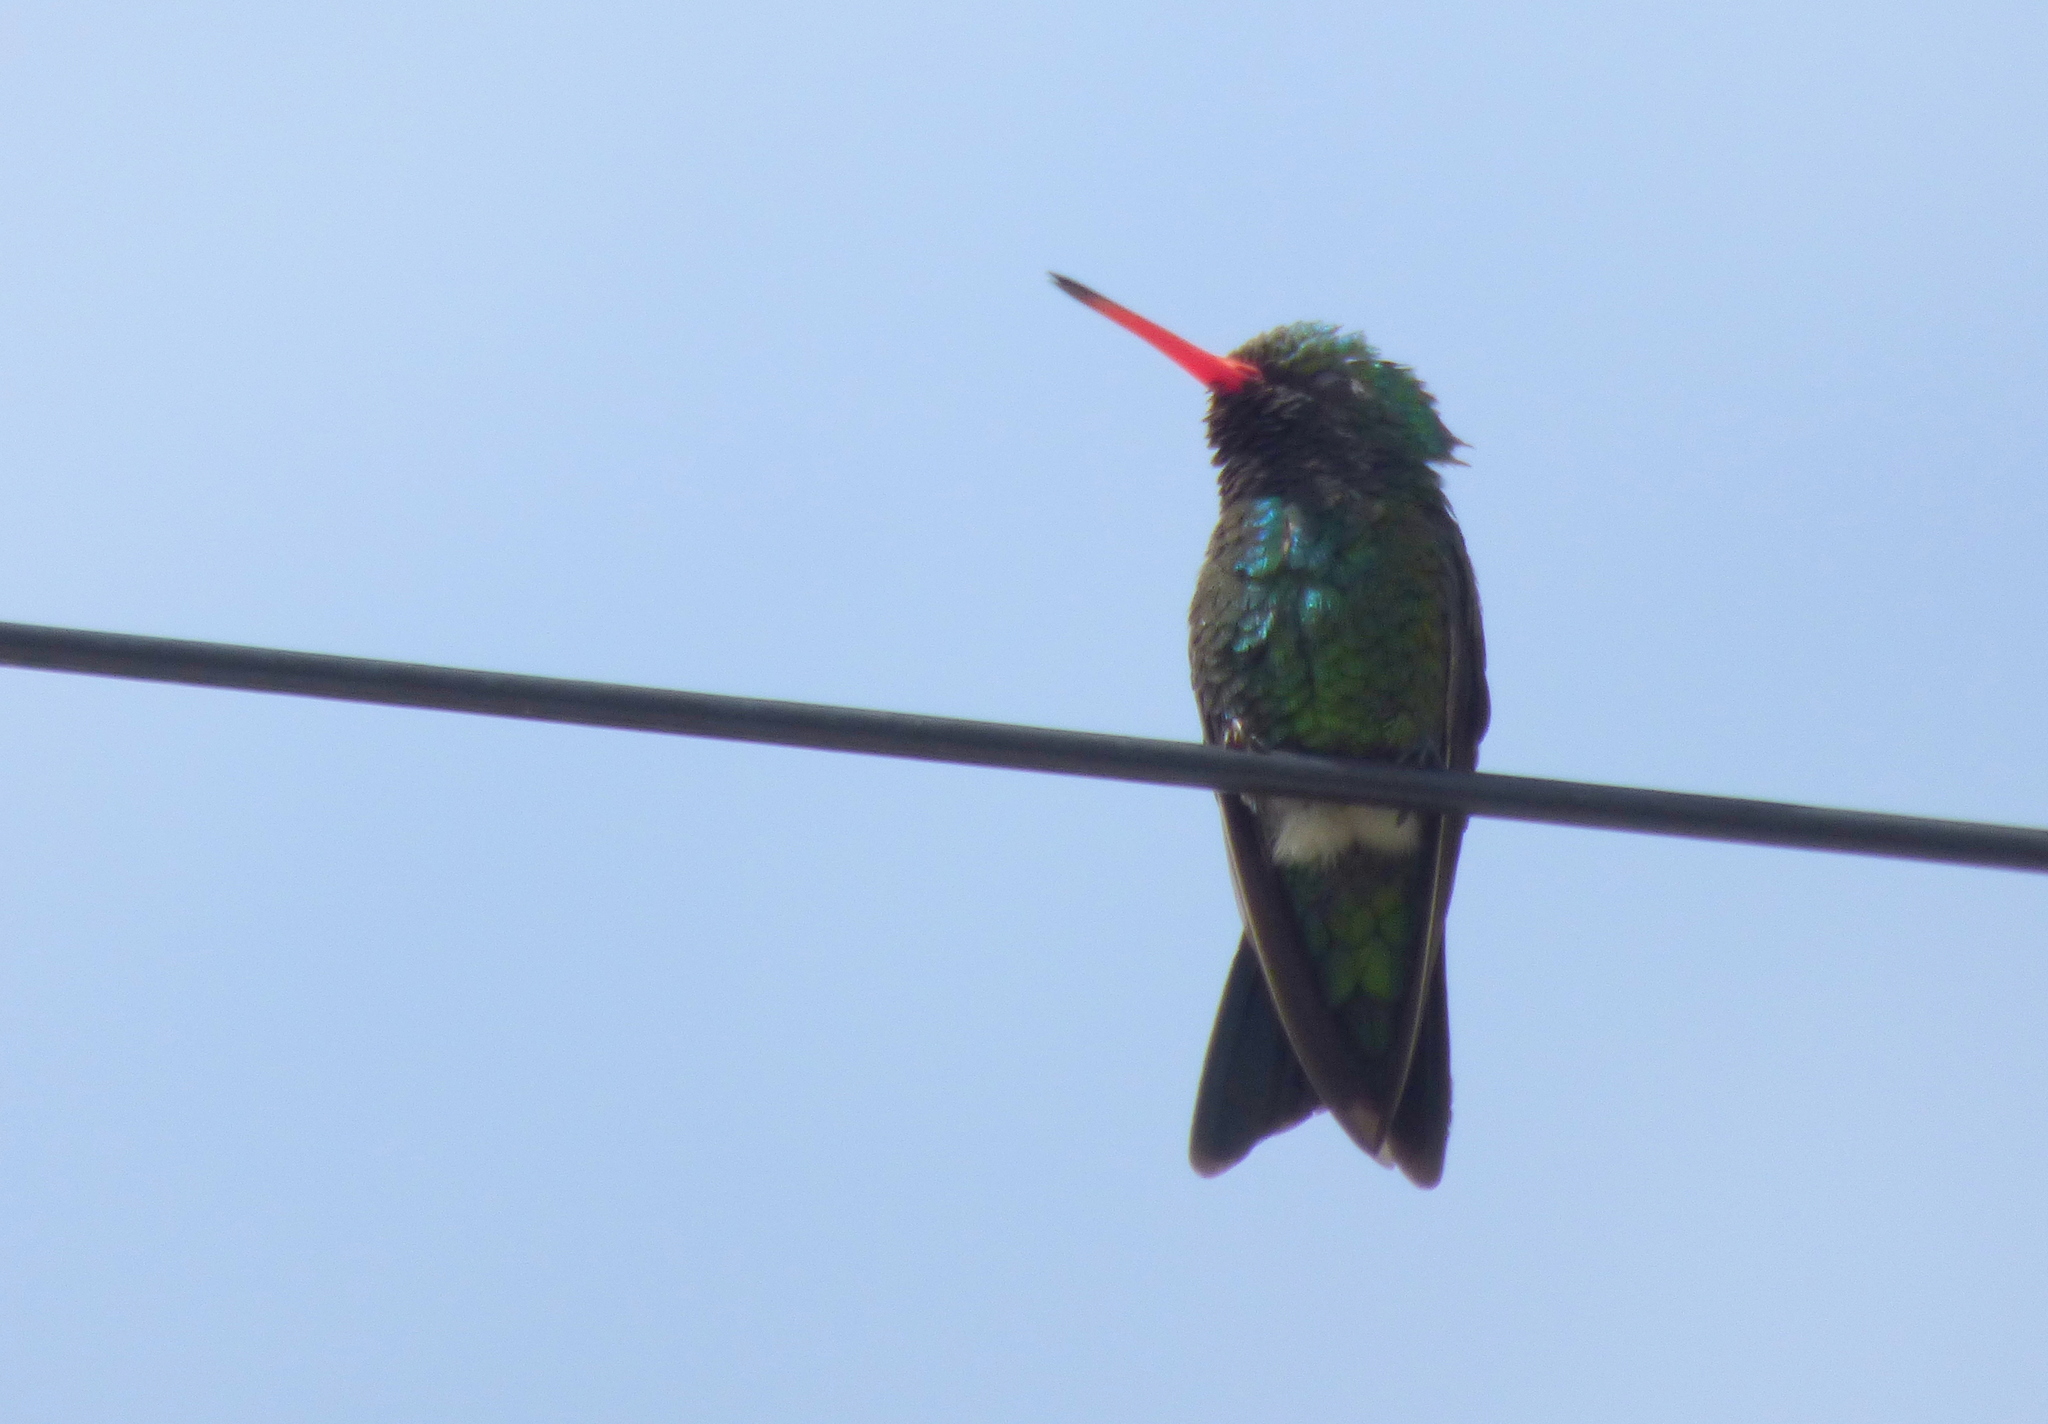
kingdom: Animalia
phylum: Chordata
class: Aves
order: Apodiformes
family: Trochilidae
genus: Chlorostilbon
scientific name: Chlorostilbon lucidus
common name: Glittering-bellied emerald
